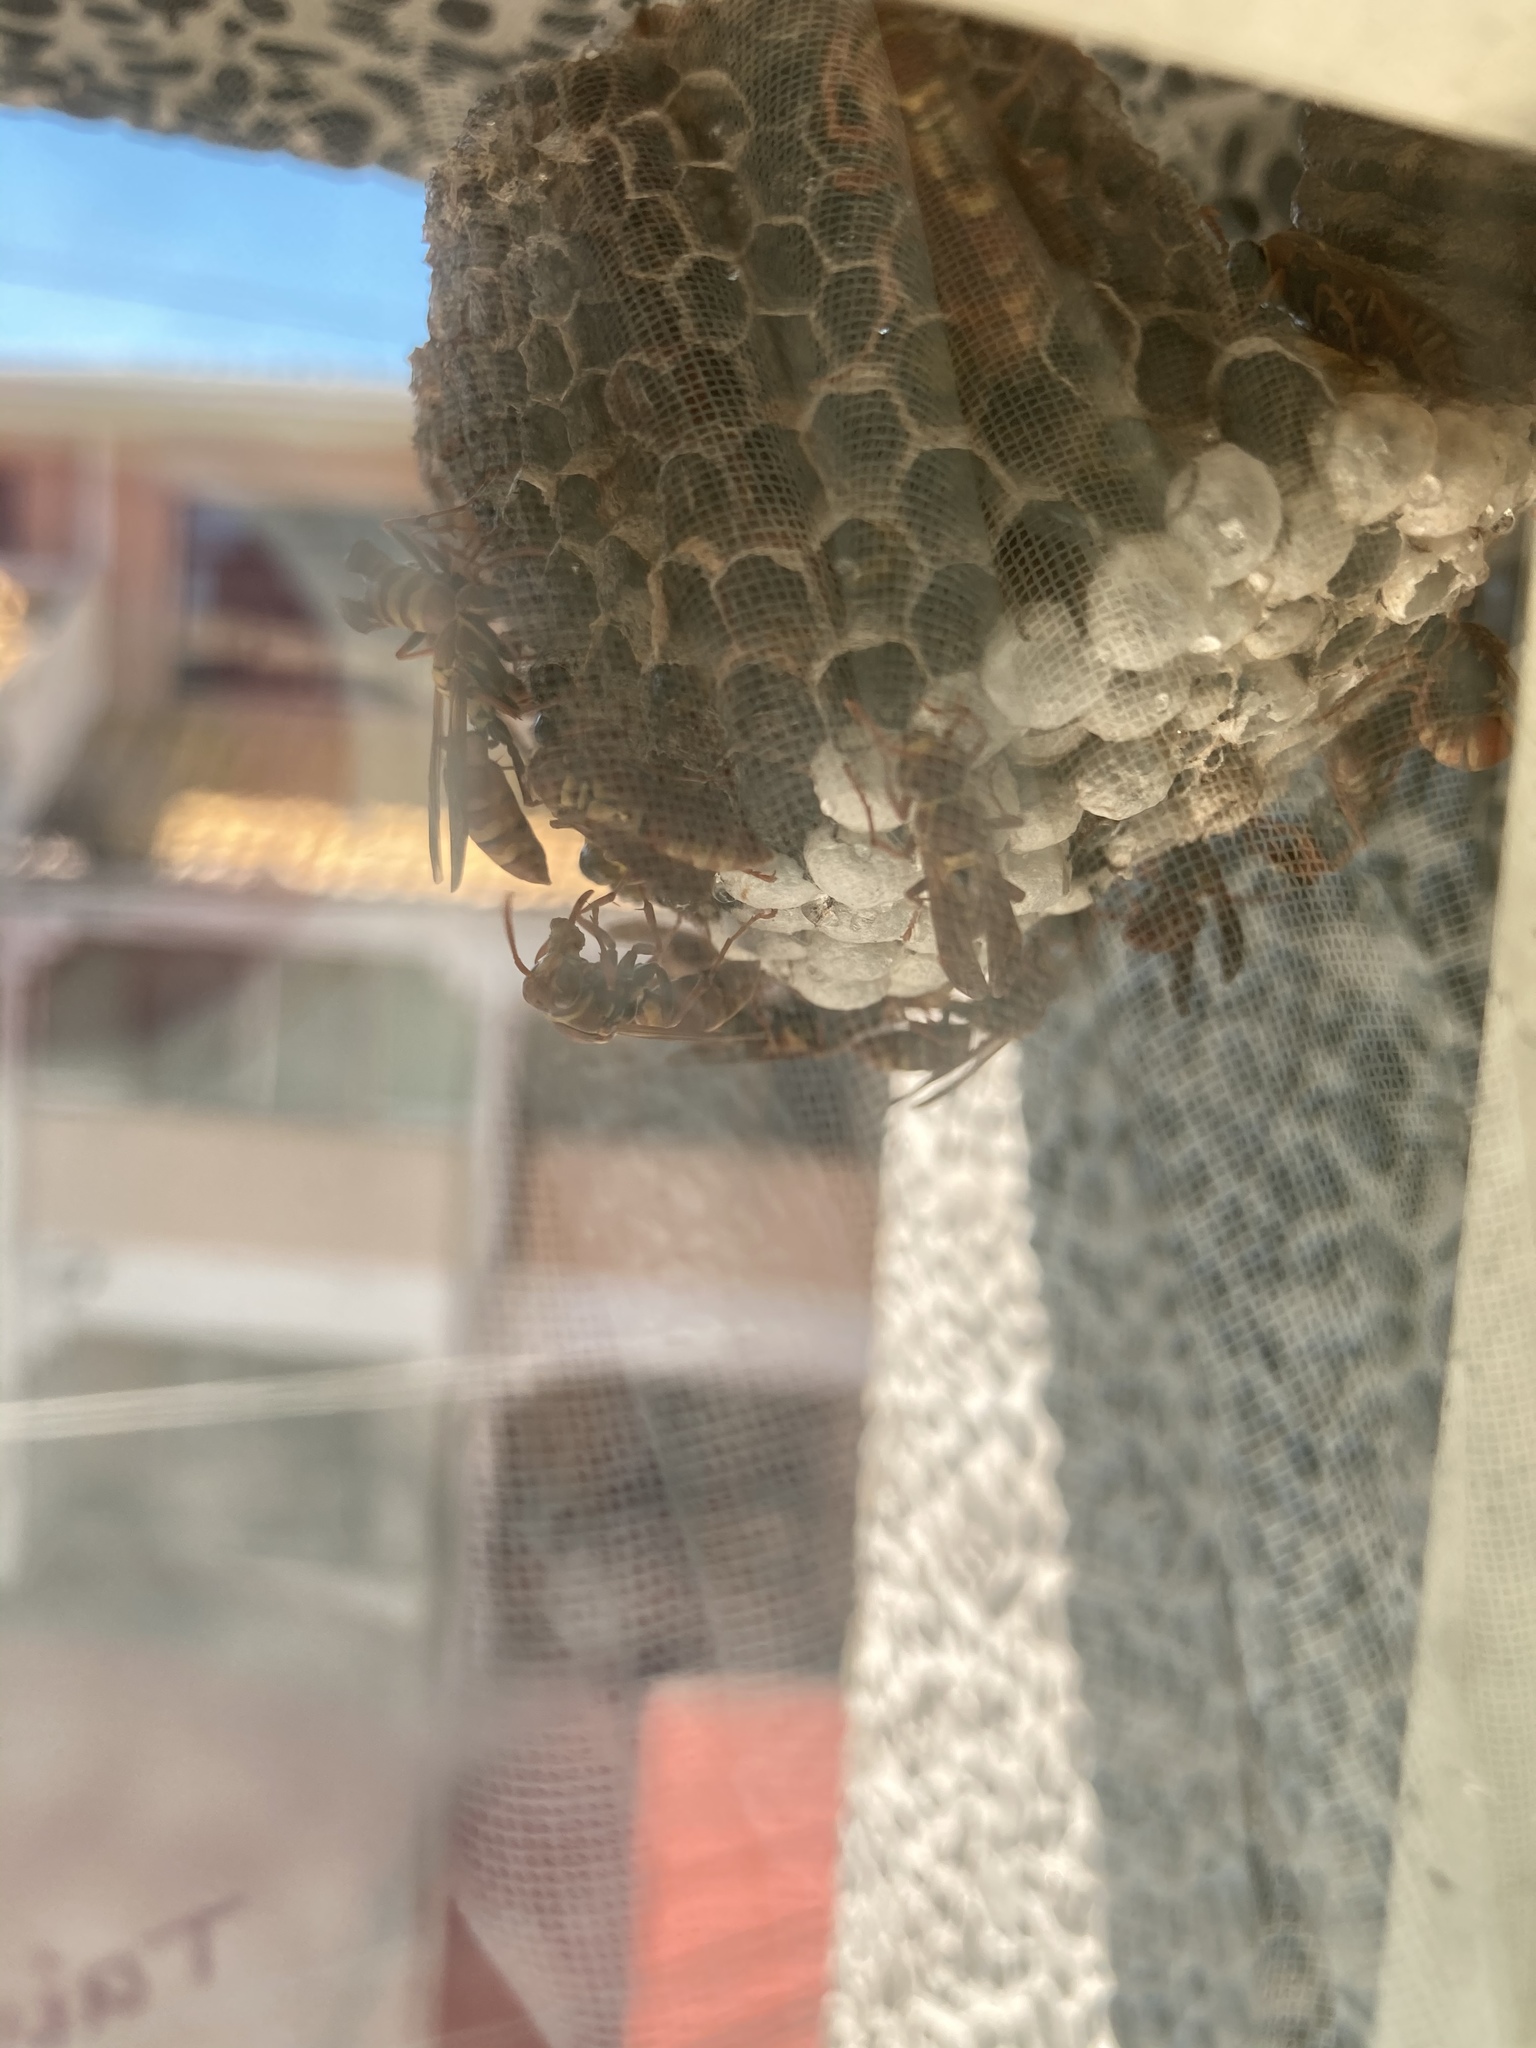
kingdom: Animalia
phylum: Arthropoda
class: Insecta
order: Hymenoptera
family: Eumenidae
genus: Polistes
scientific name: Polistes shirakii
